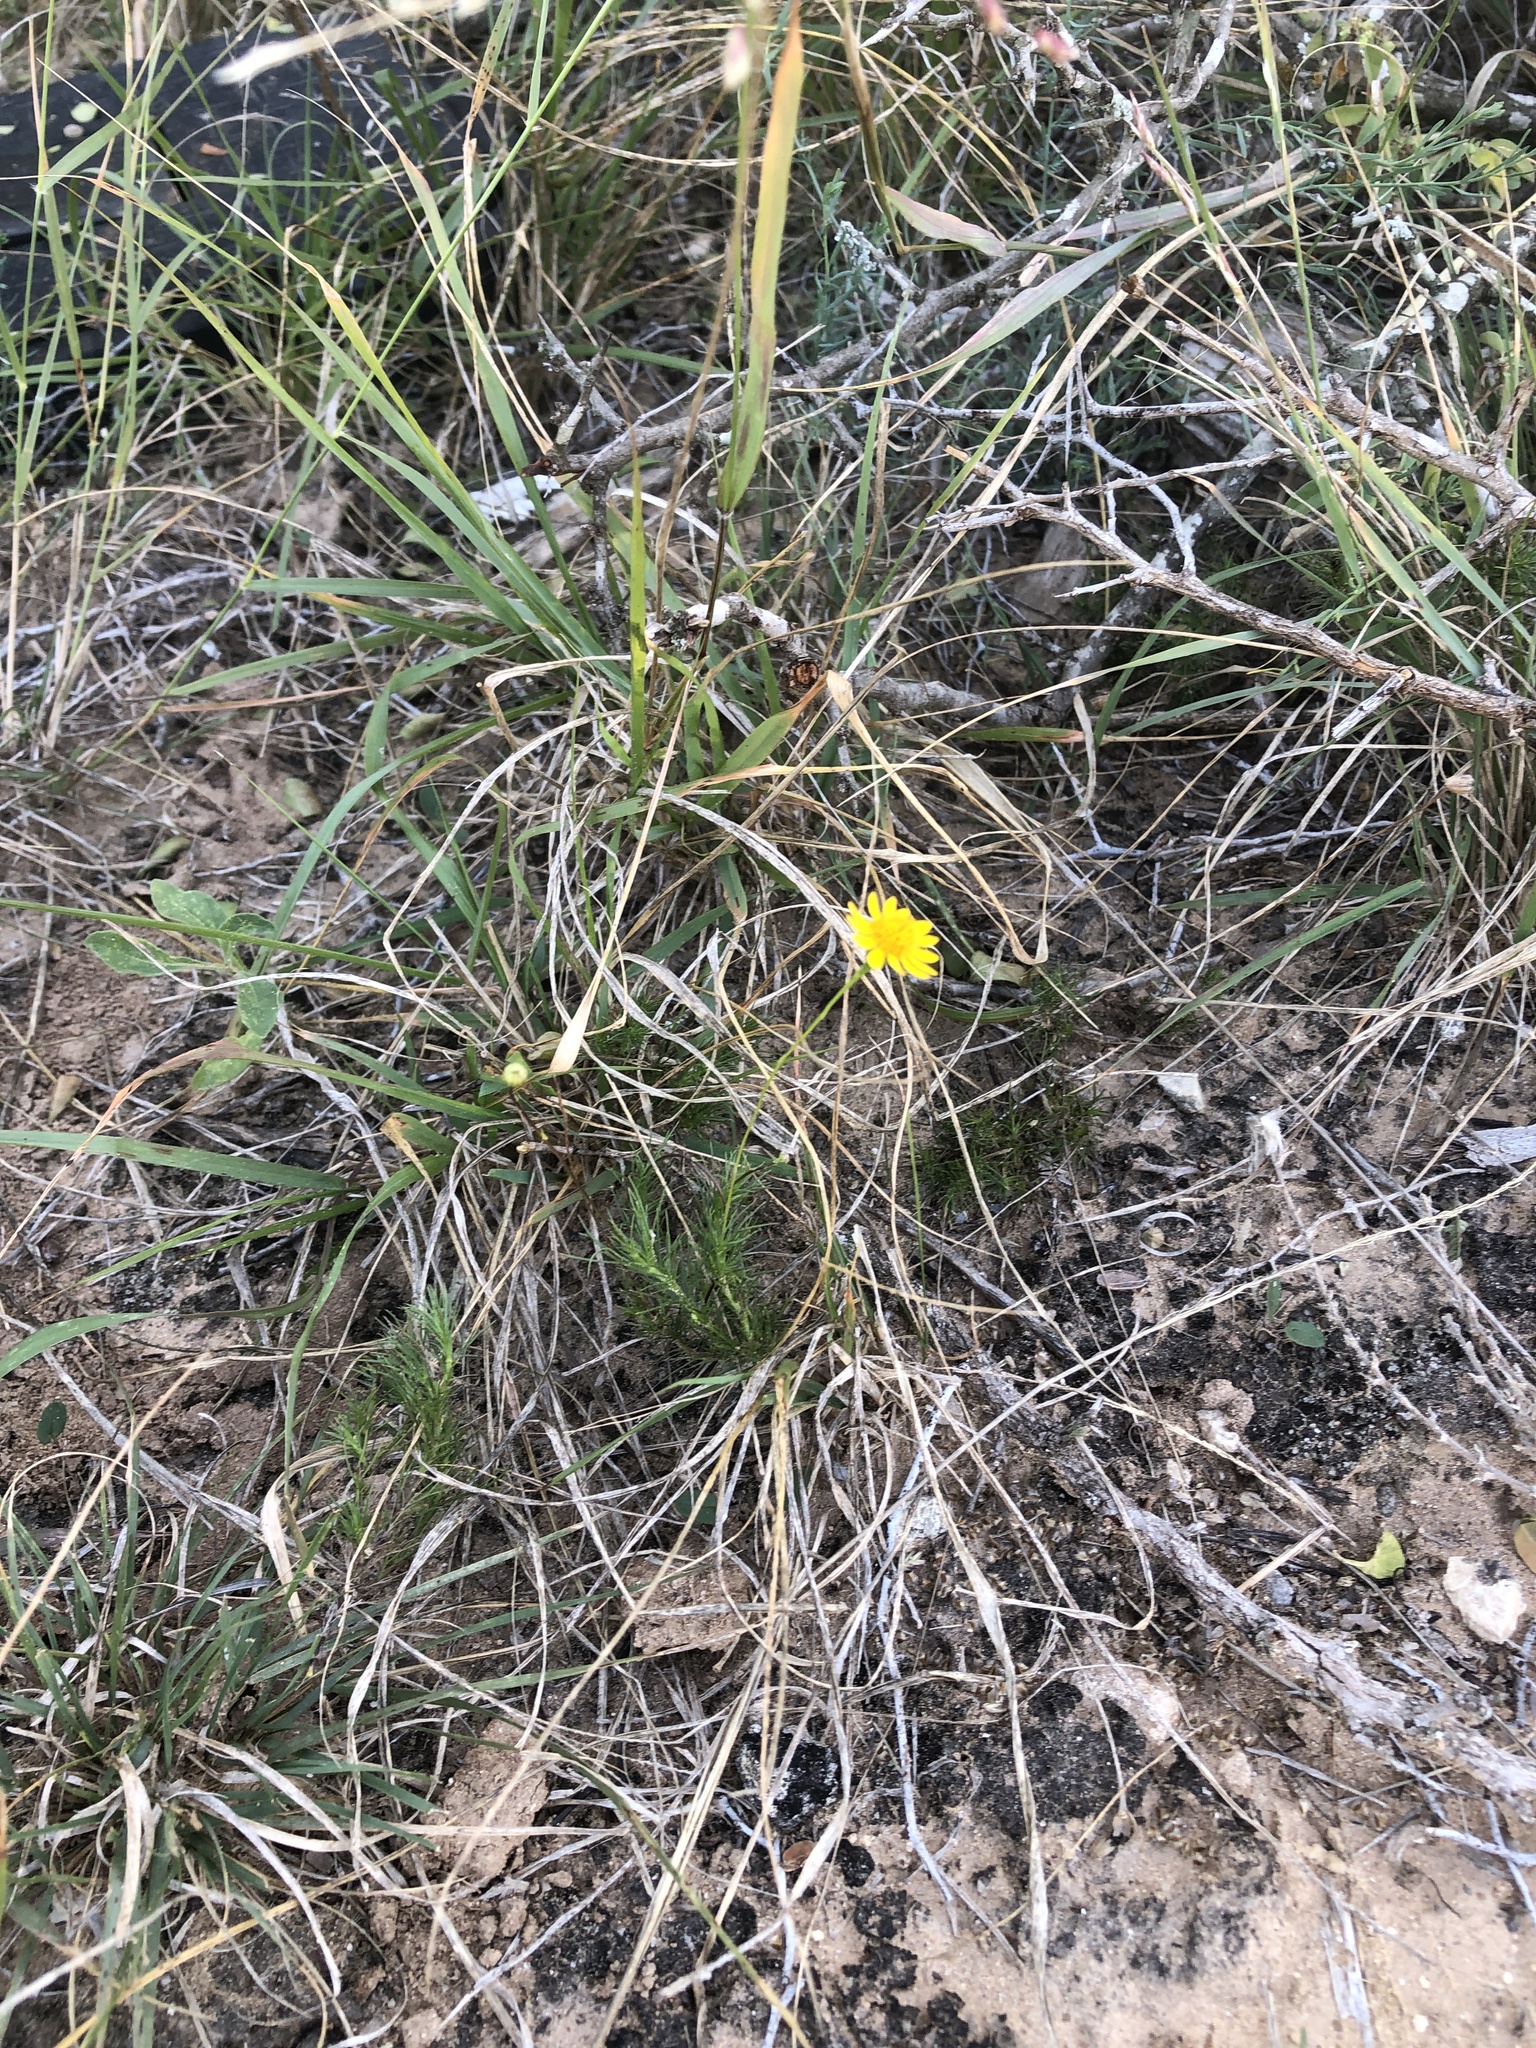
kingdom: Plantae
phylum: Tracheophyta
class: Magnoliopsida
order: Asterales
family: Asteraceae
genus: Thymophylla
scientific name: Thymophylla tenuiloba
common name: Dahlberg's daisy
